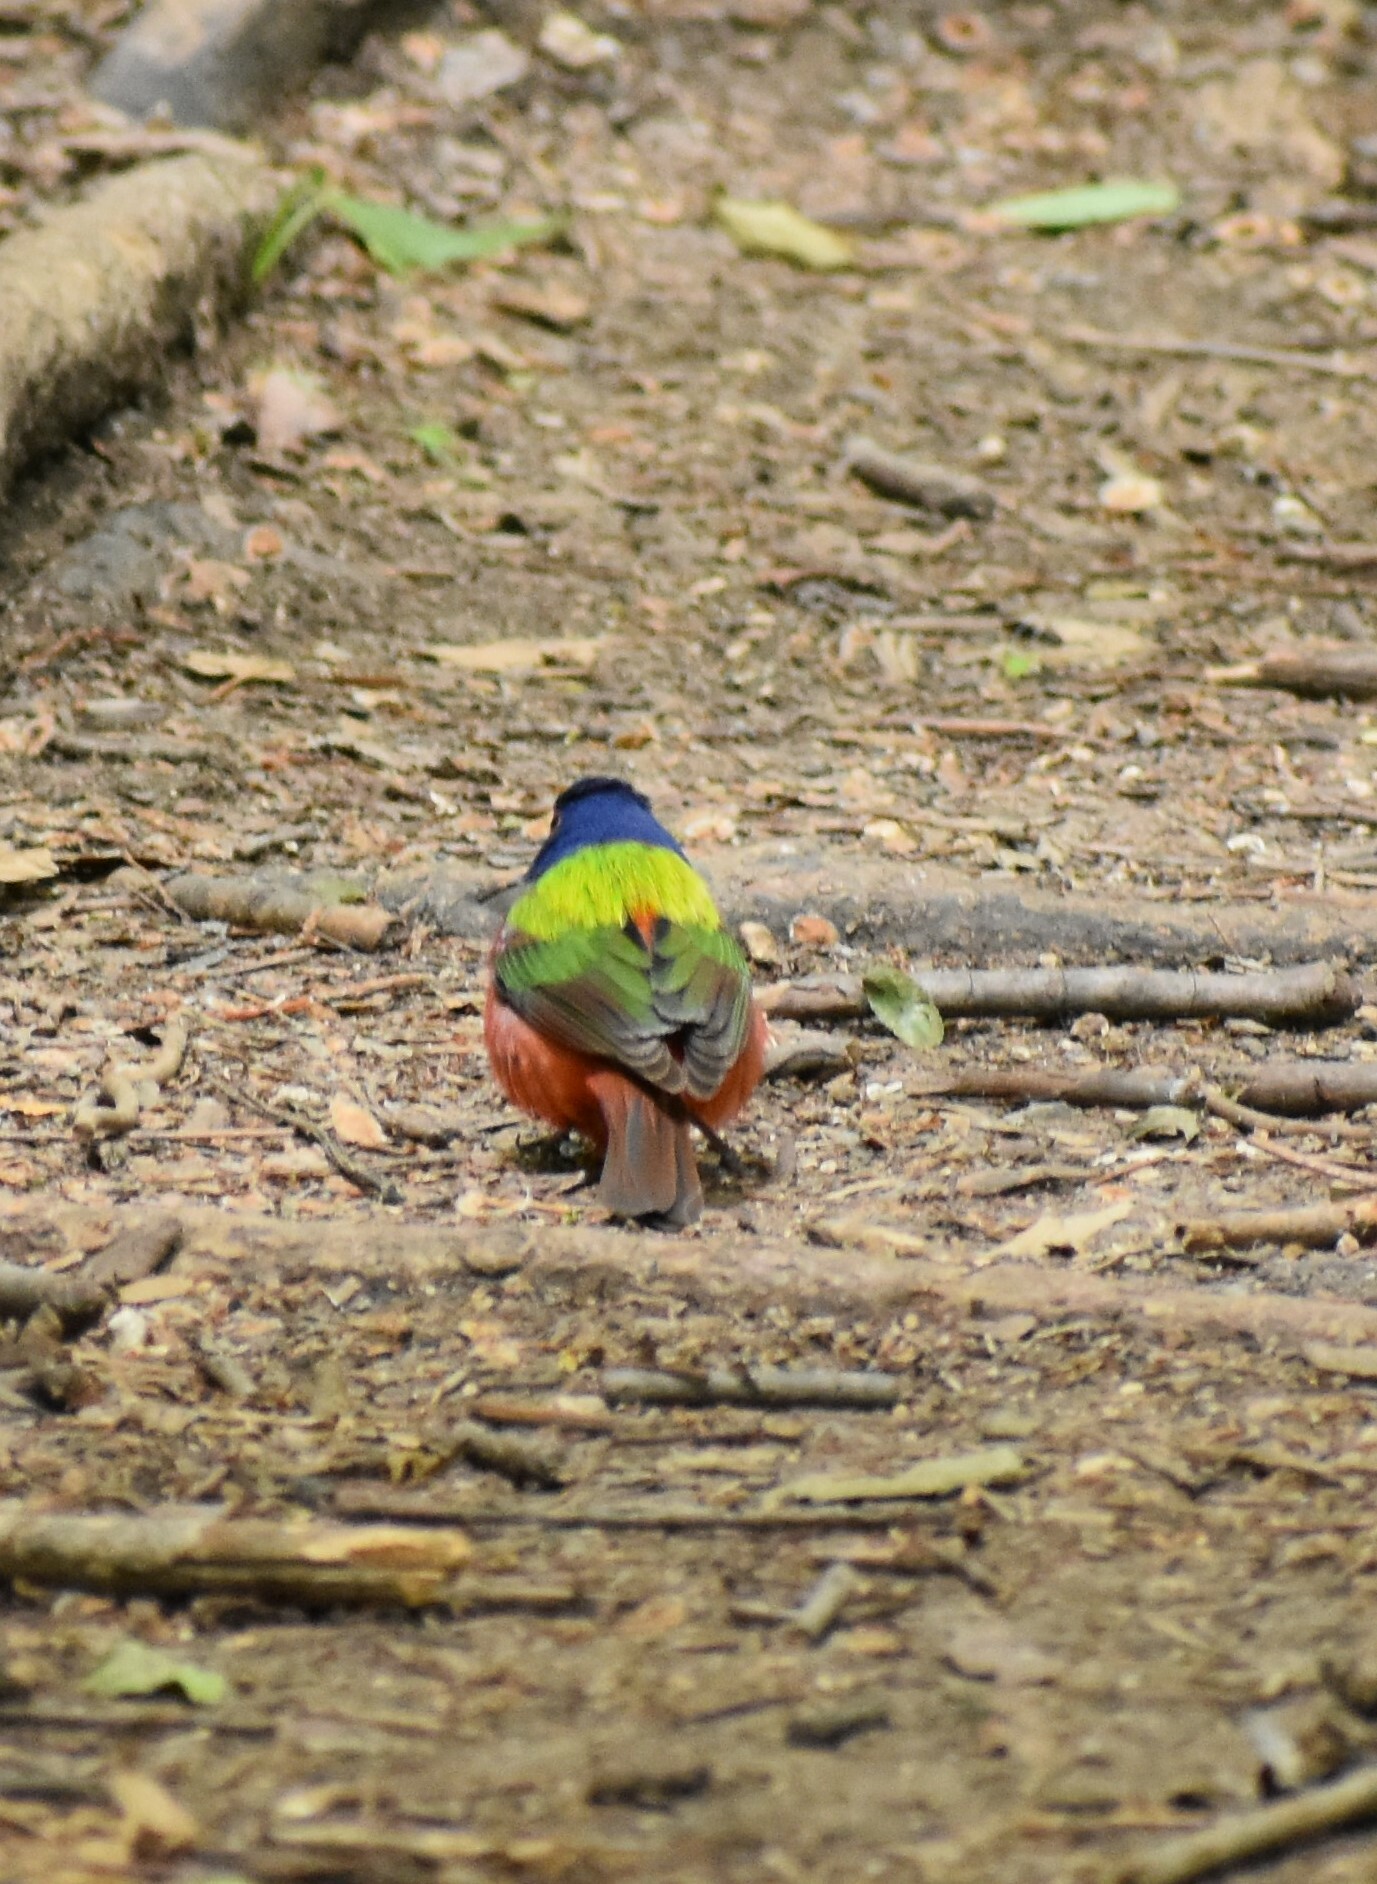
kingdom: Animalia
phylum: Chordata
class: Aves
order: Passeriformes
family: Cardinalidae
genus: Passerina
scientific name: Passerina ciris
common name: Painted bunting
